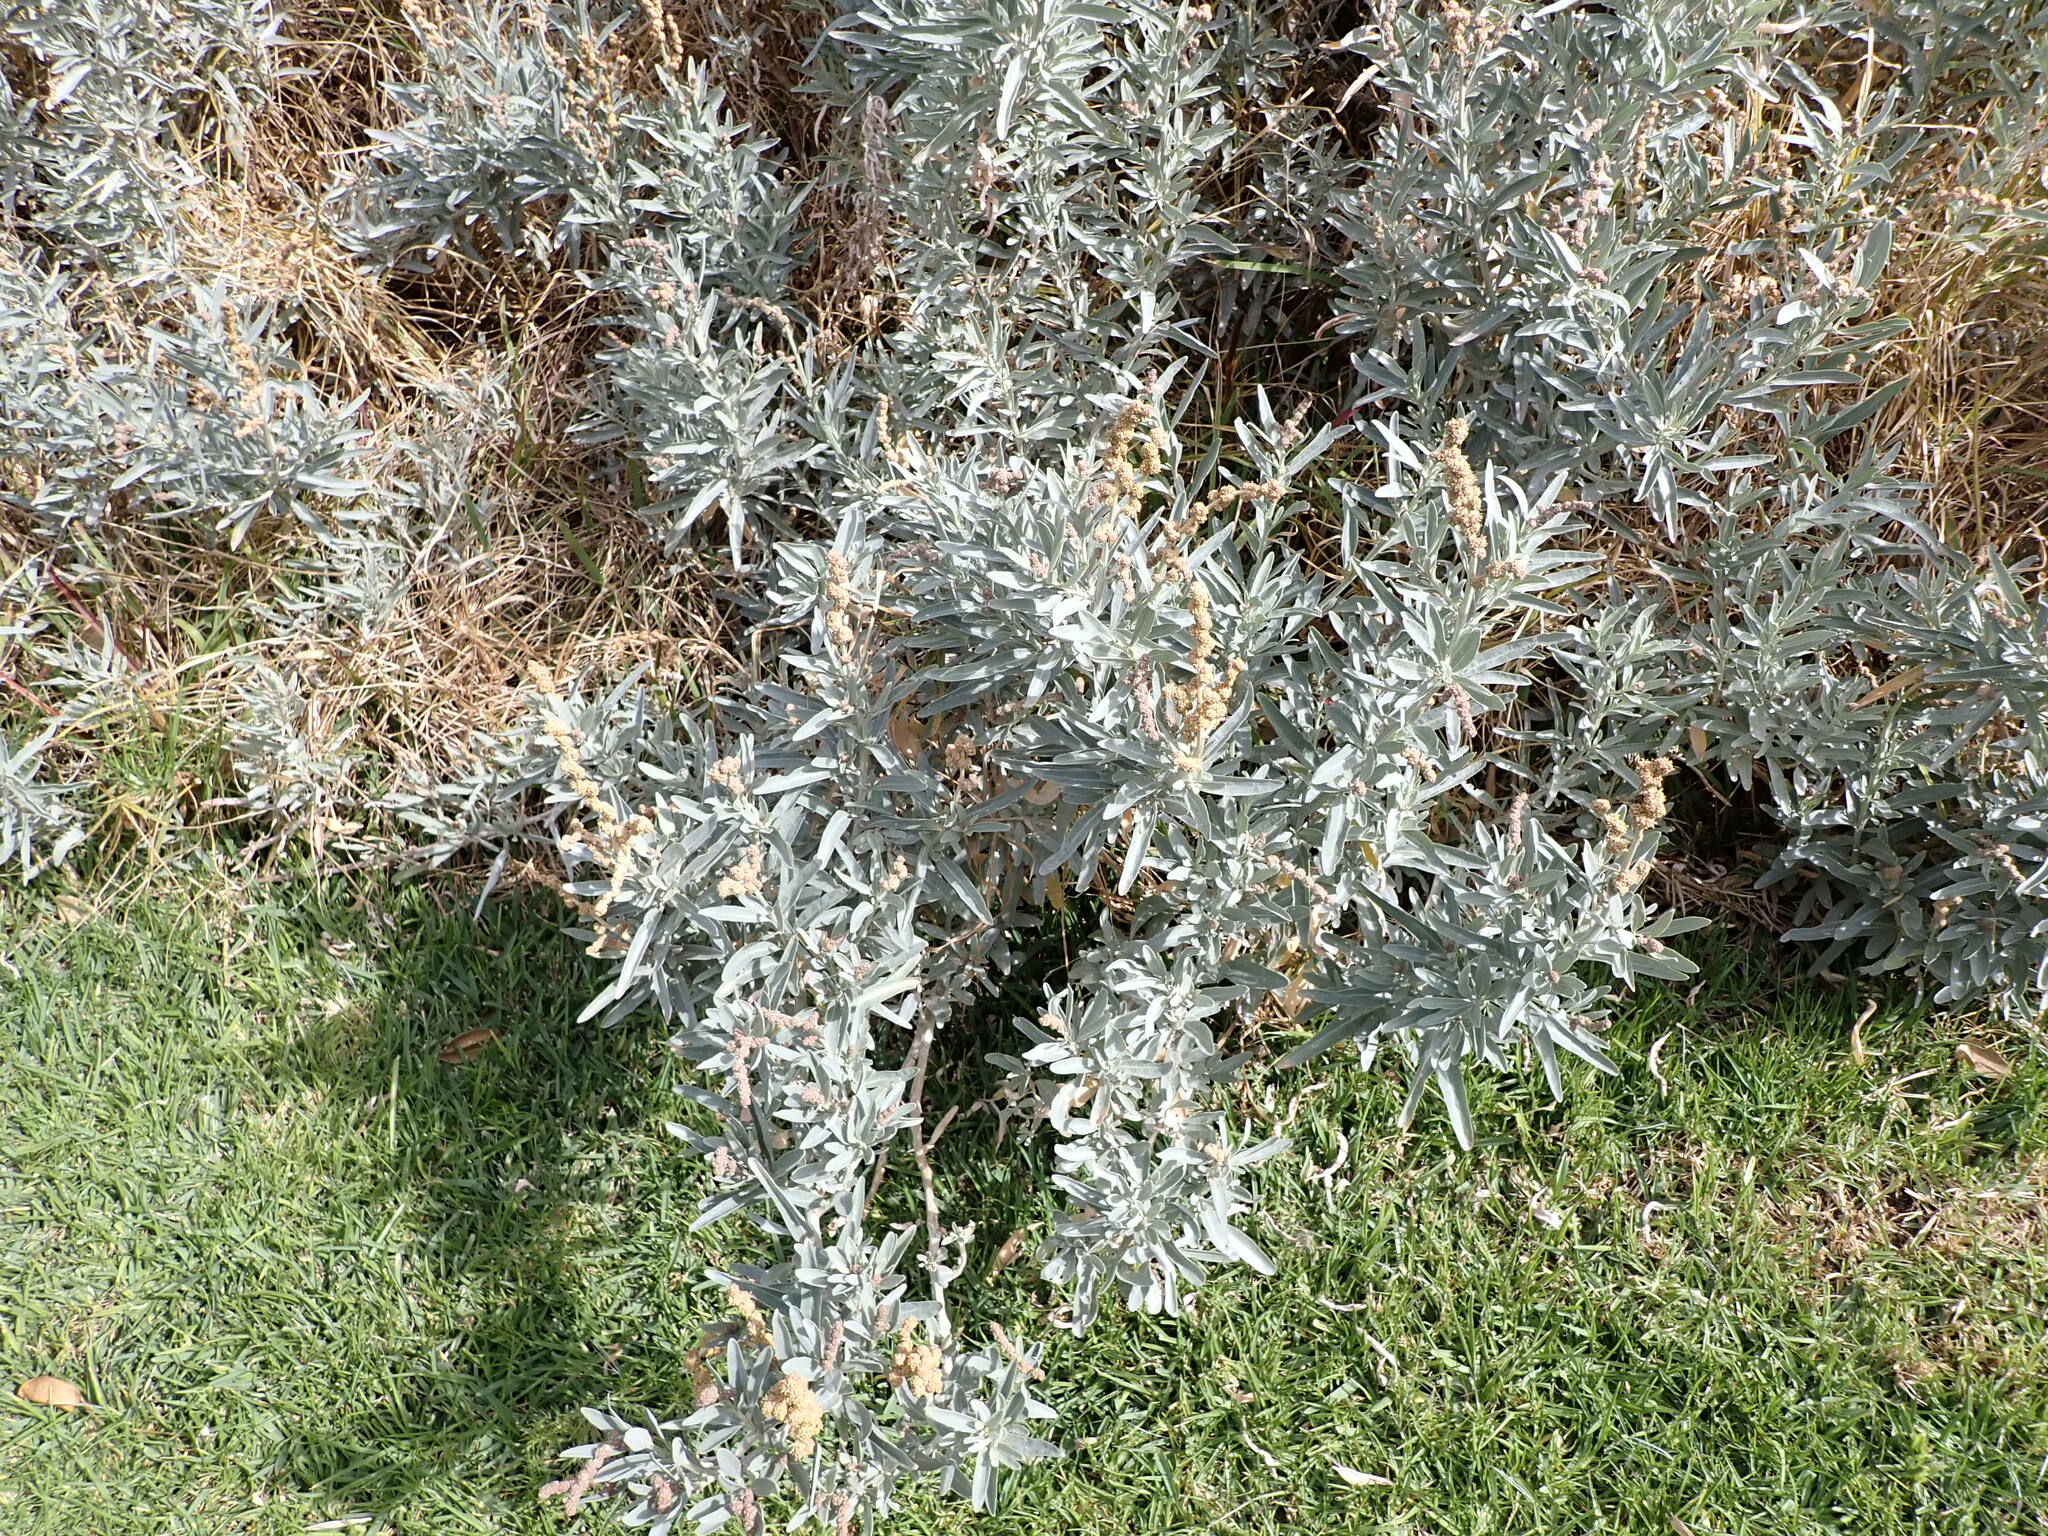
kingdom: Plantae
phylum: Tracheophyta
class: Magnoliopsida
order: Caryophyllales
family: Amaranthaceae
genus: Atriplex
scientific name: Atriplex cinerea
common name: Grey saltbush
